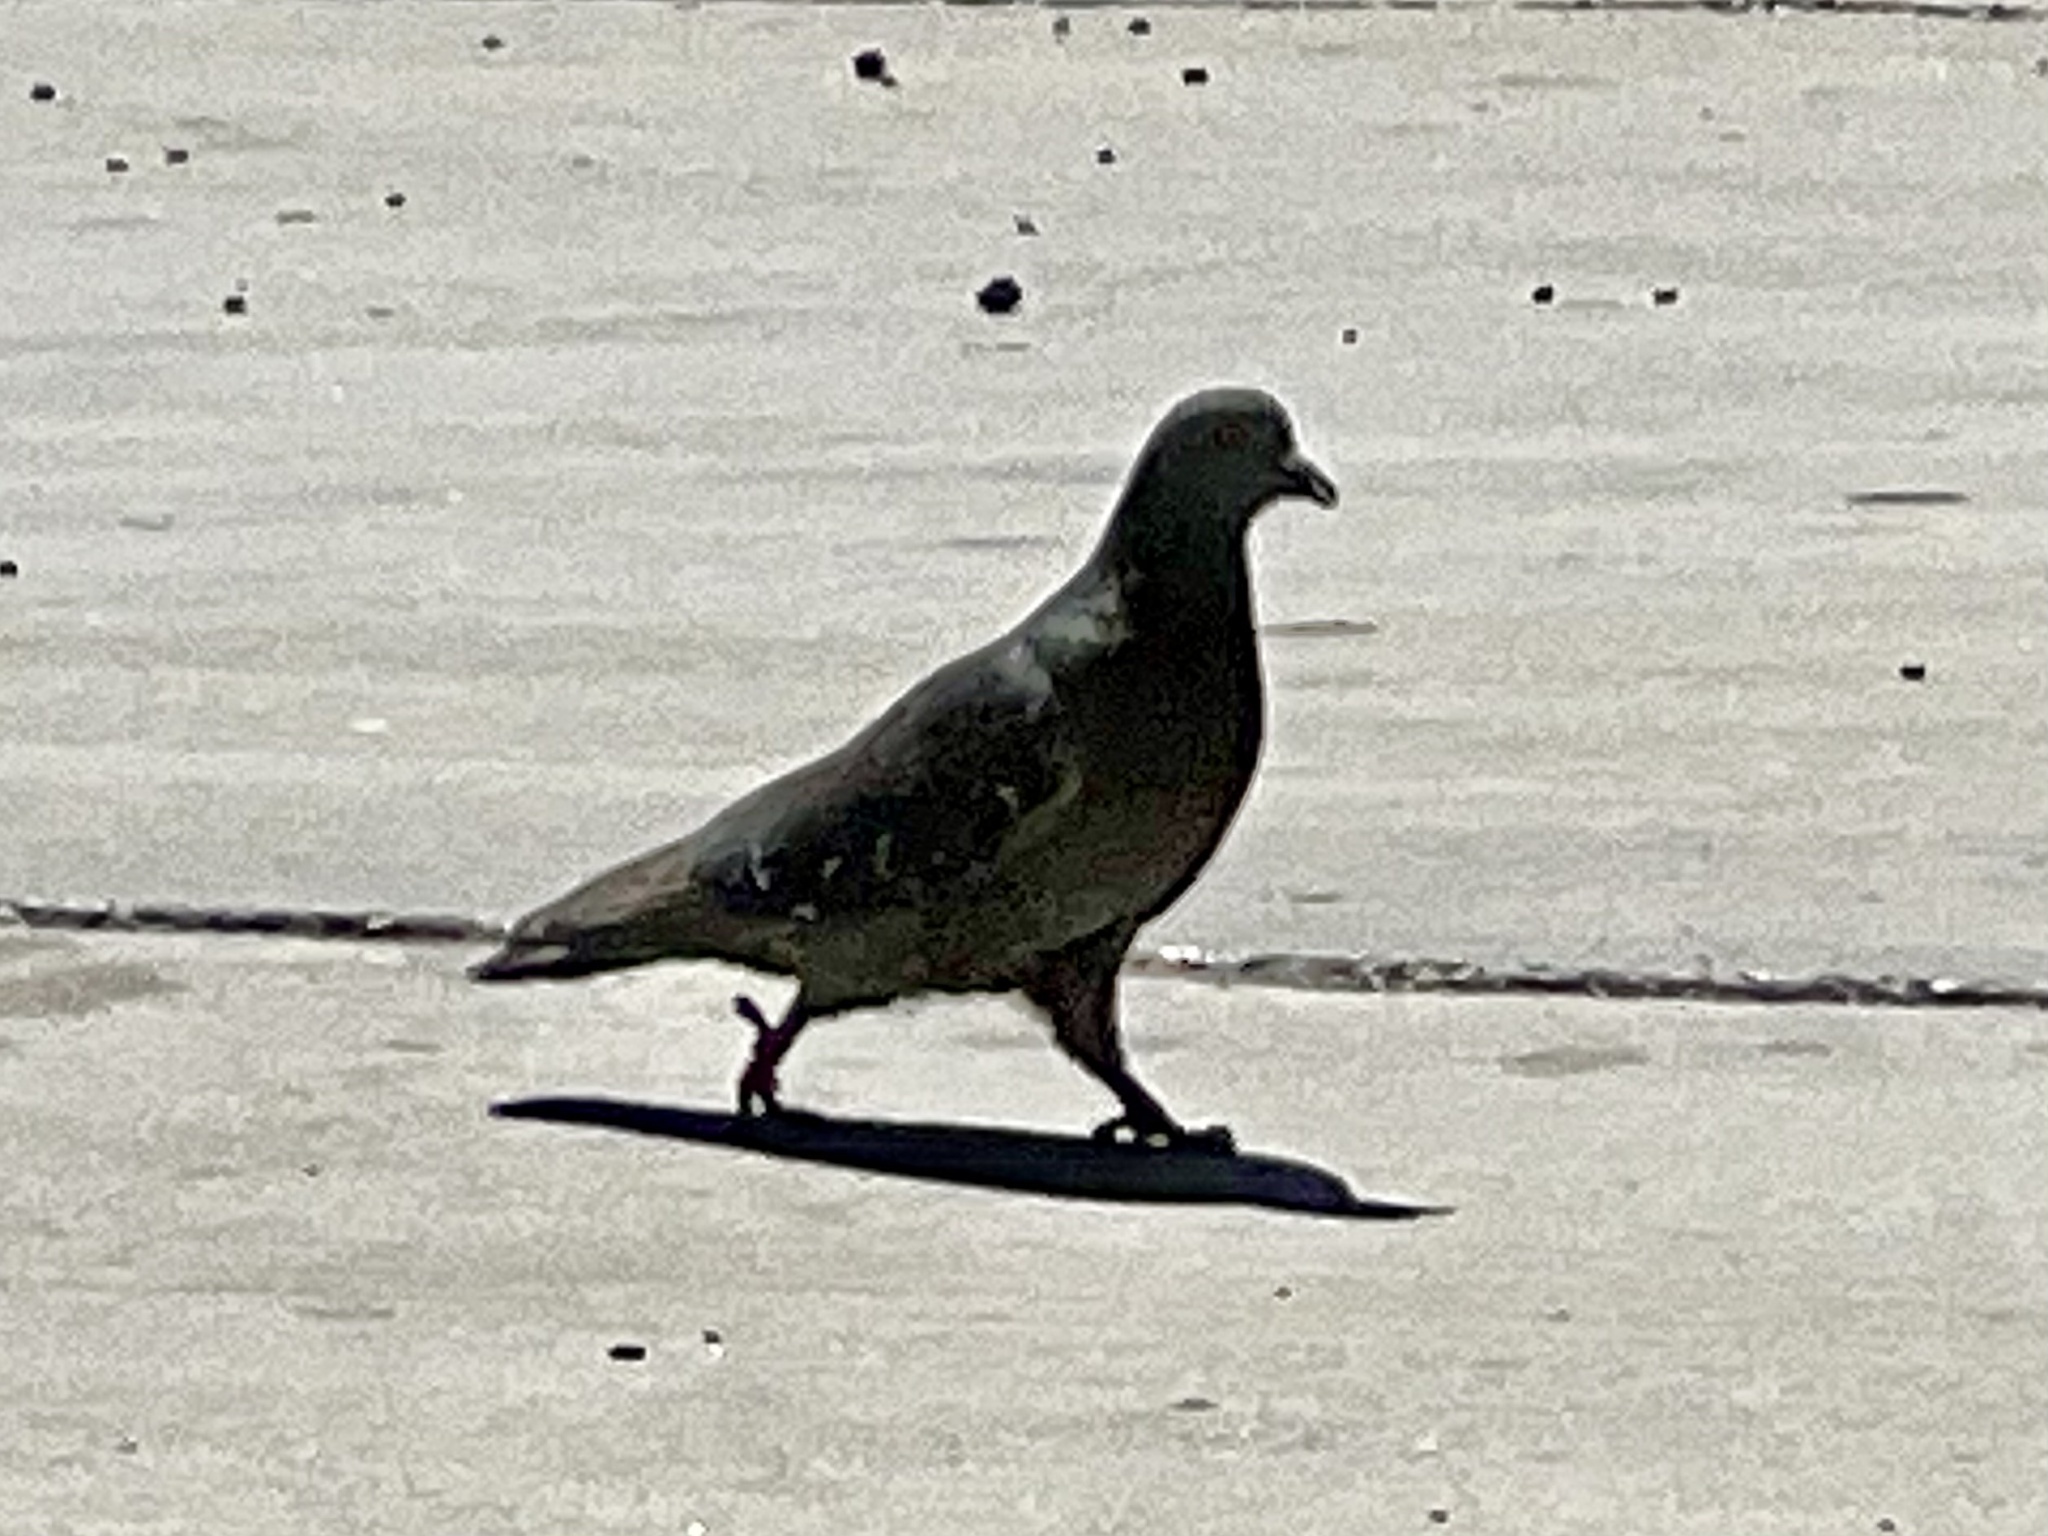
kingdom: Animalia
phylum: Chordata
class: Aves
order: Columbiformes
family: Columbidae
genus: Columba
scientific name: Columba livia
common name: Rock pigeon
